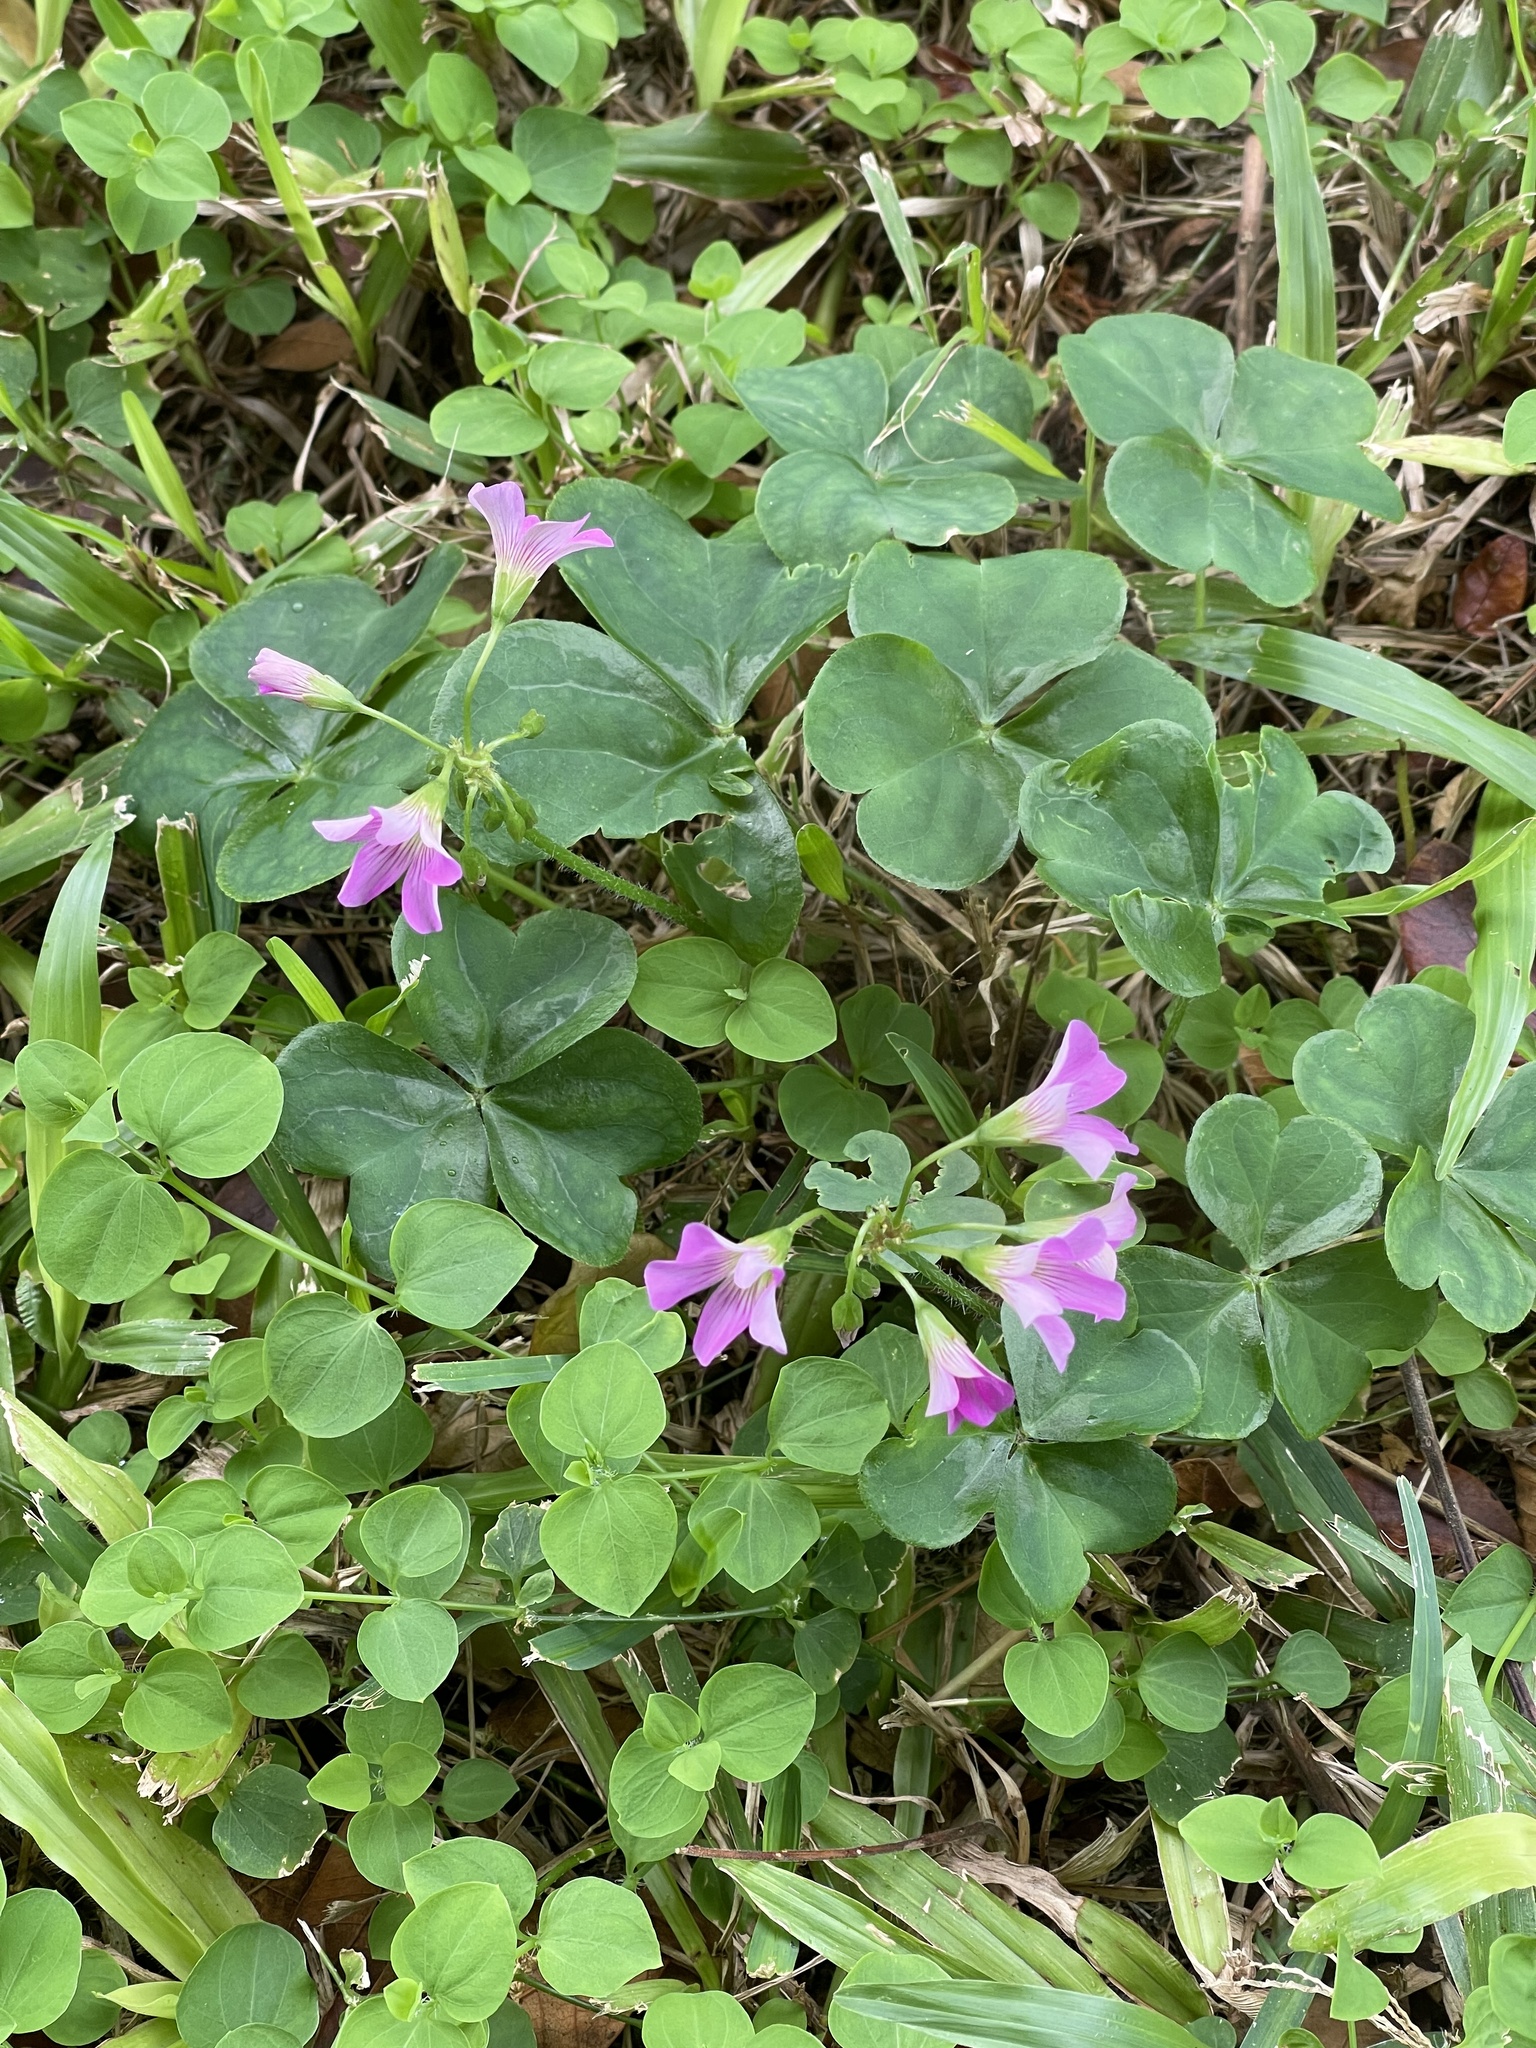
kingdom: Plantae
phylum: Tracheophyta
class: Magnoliopsida
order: Oxalidales
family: Oxalidaceae
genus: Oxalis
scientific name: Oxalis debilis
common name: Large-flowered pink-sorrel
